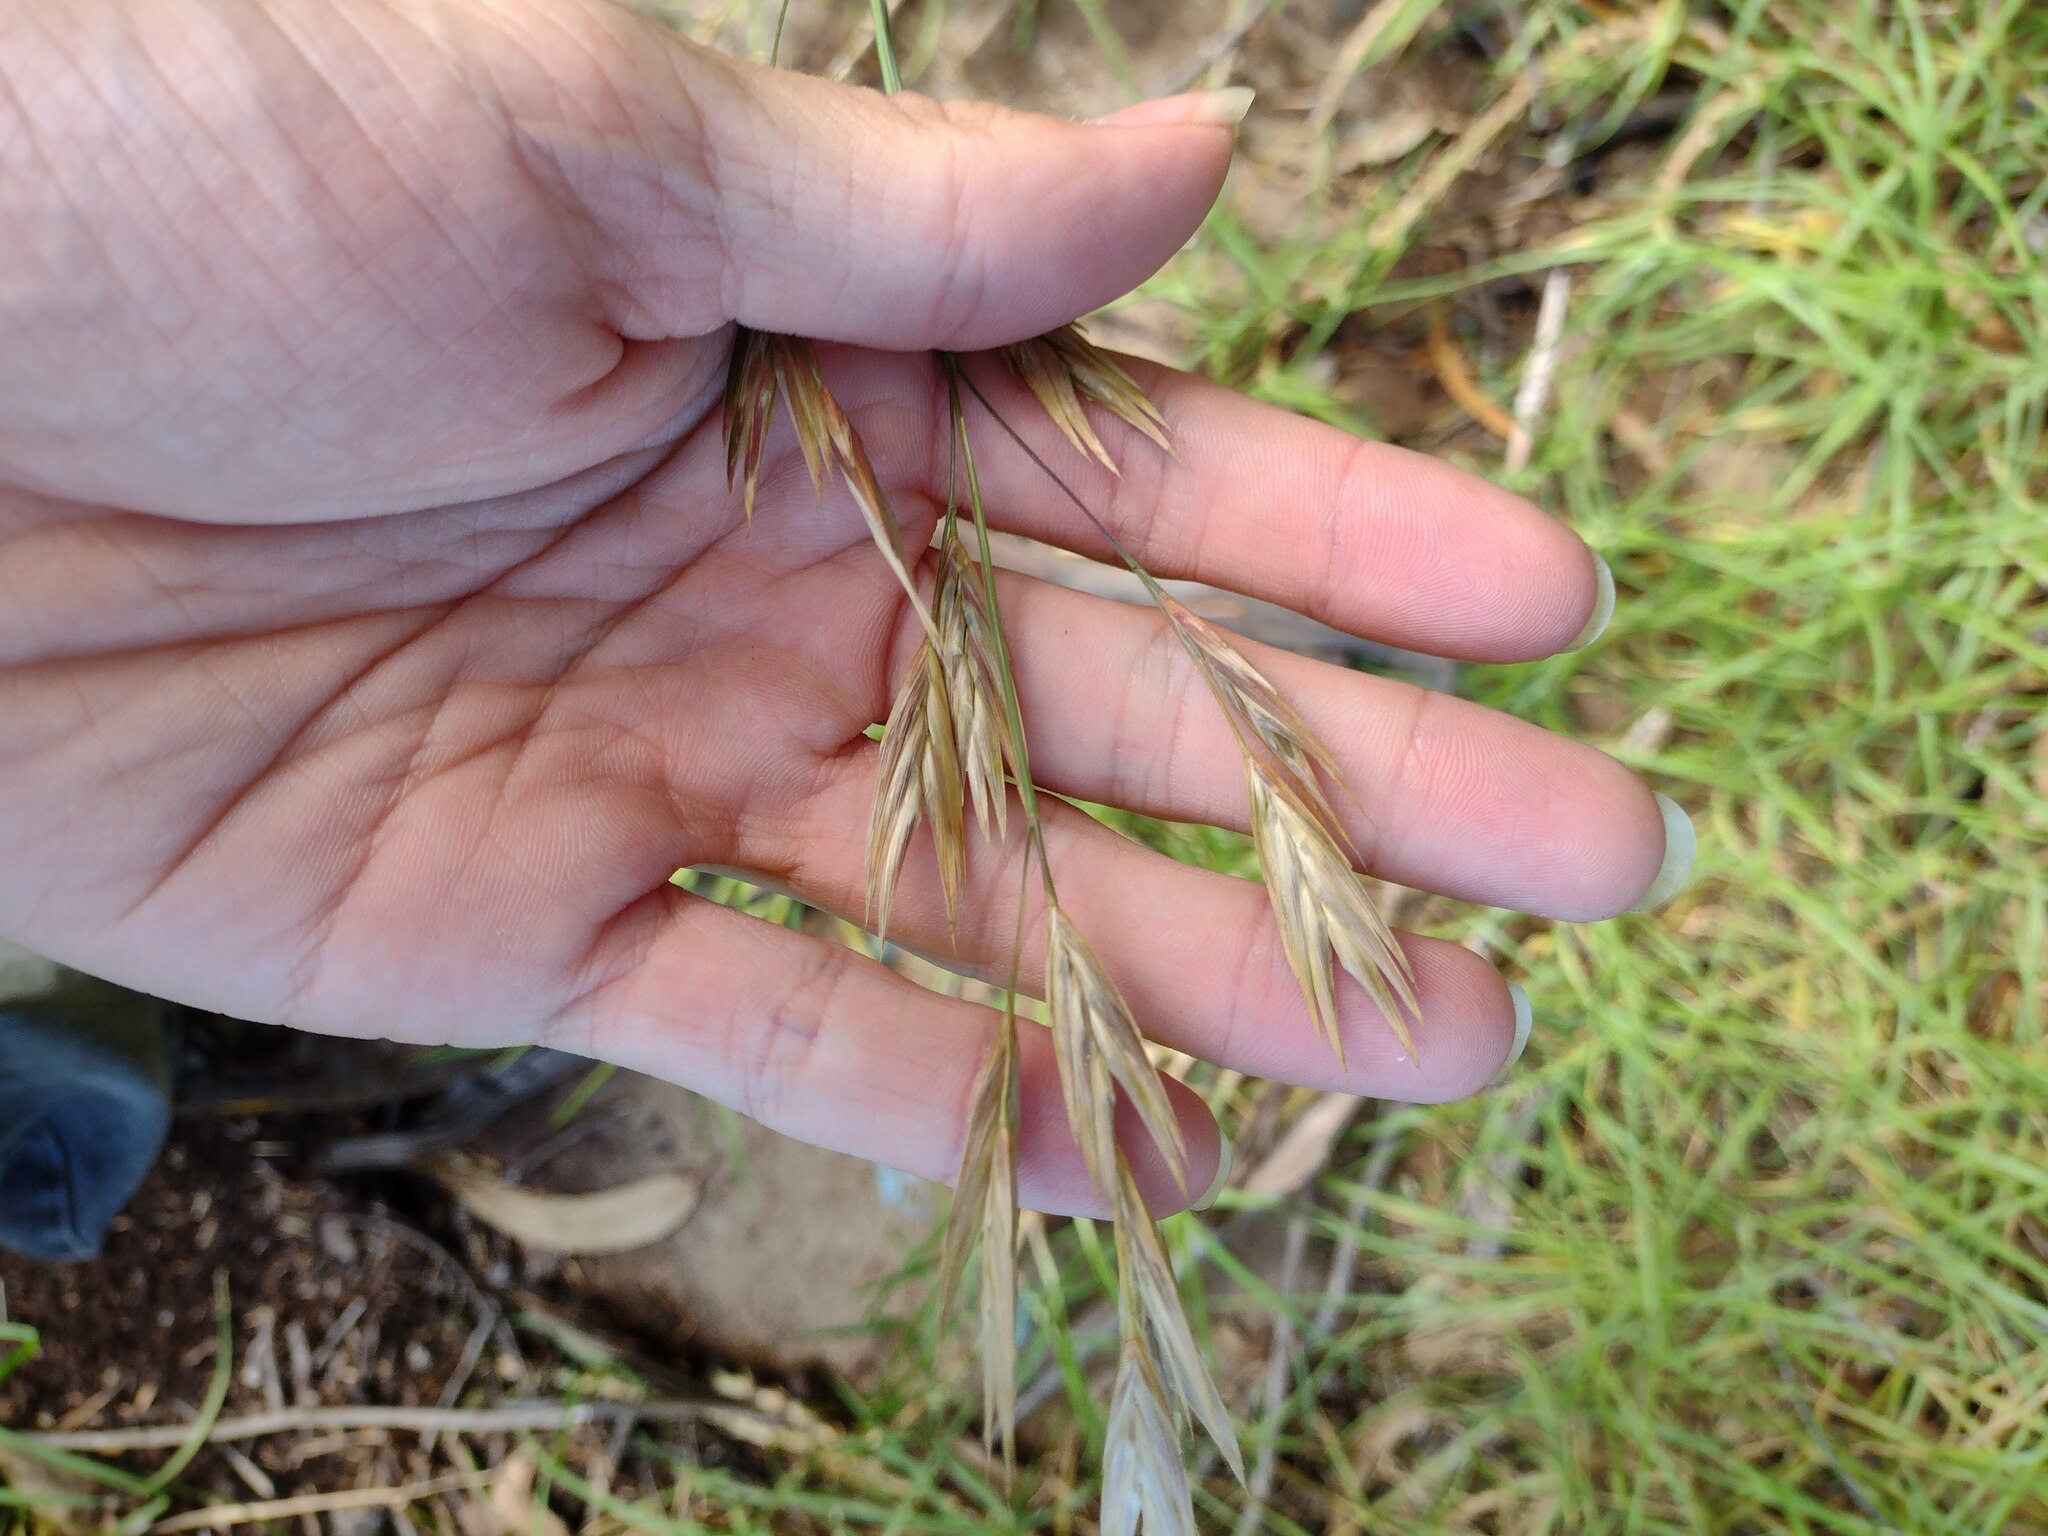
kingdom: Plantae
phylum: Tracheophyta
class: Liliopsida
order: Poales
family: Poaceae
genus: Bromus
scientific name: Bromus catharticus
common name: Rescuegrass
